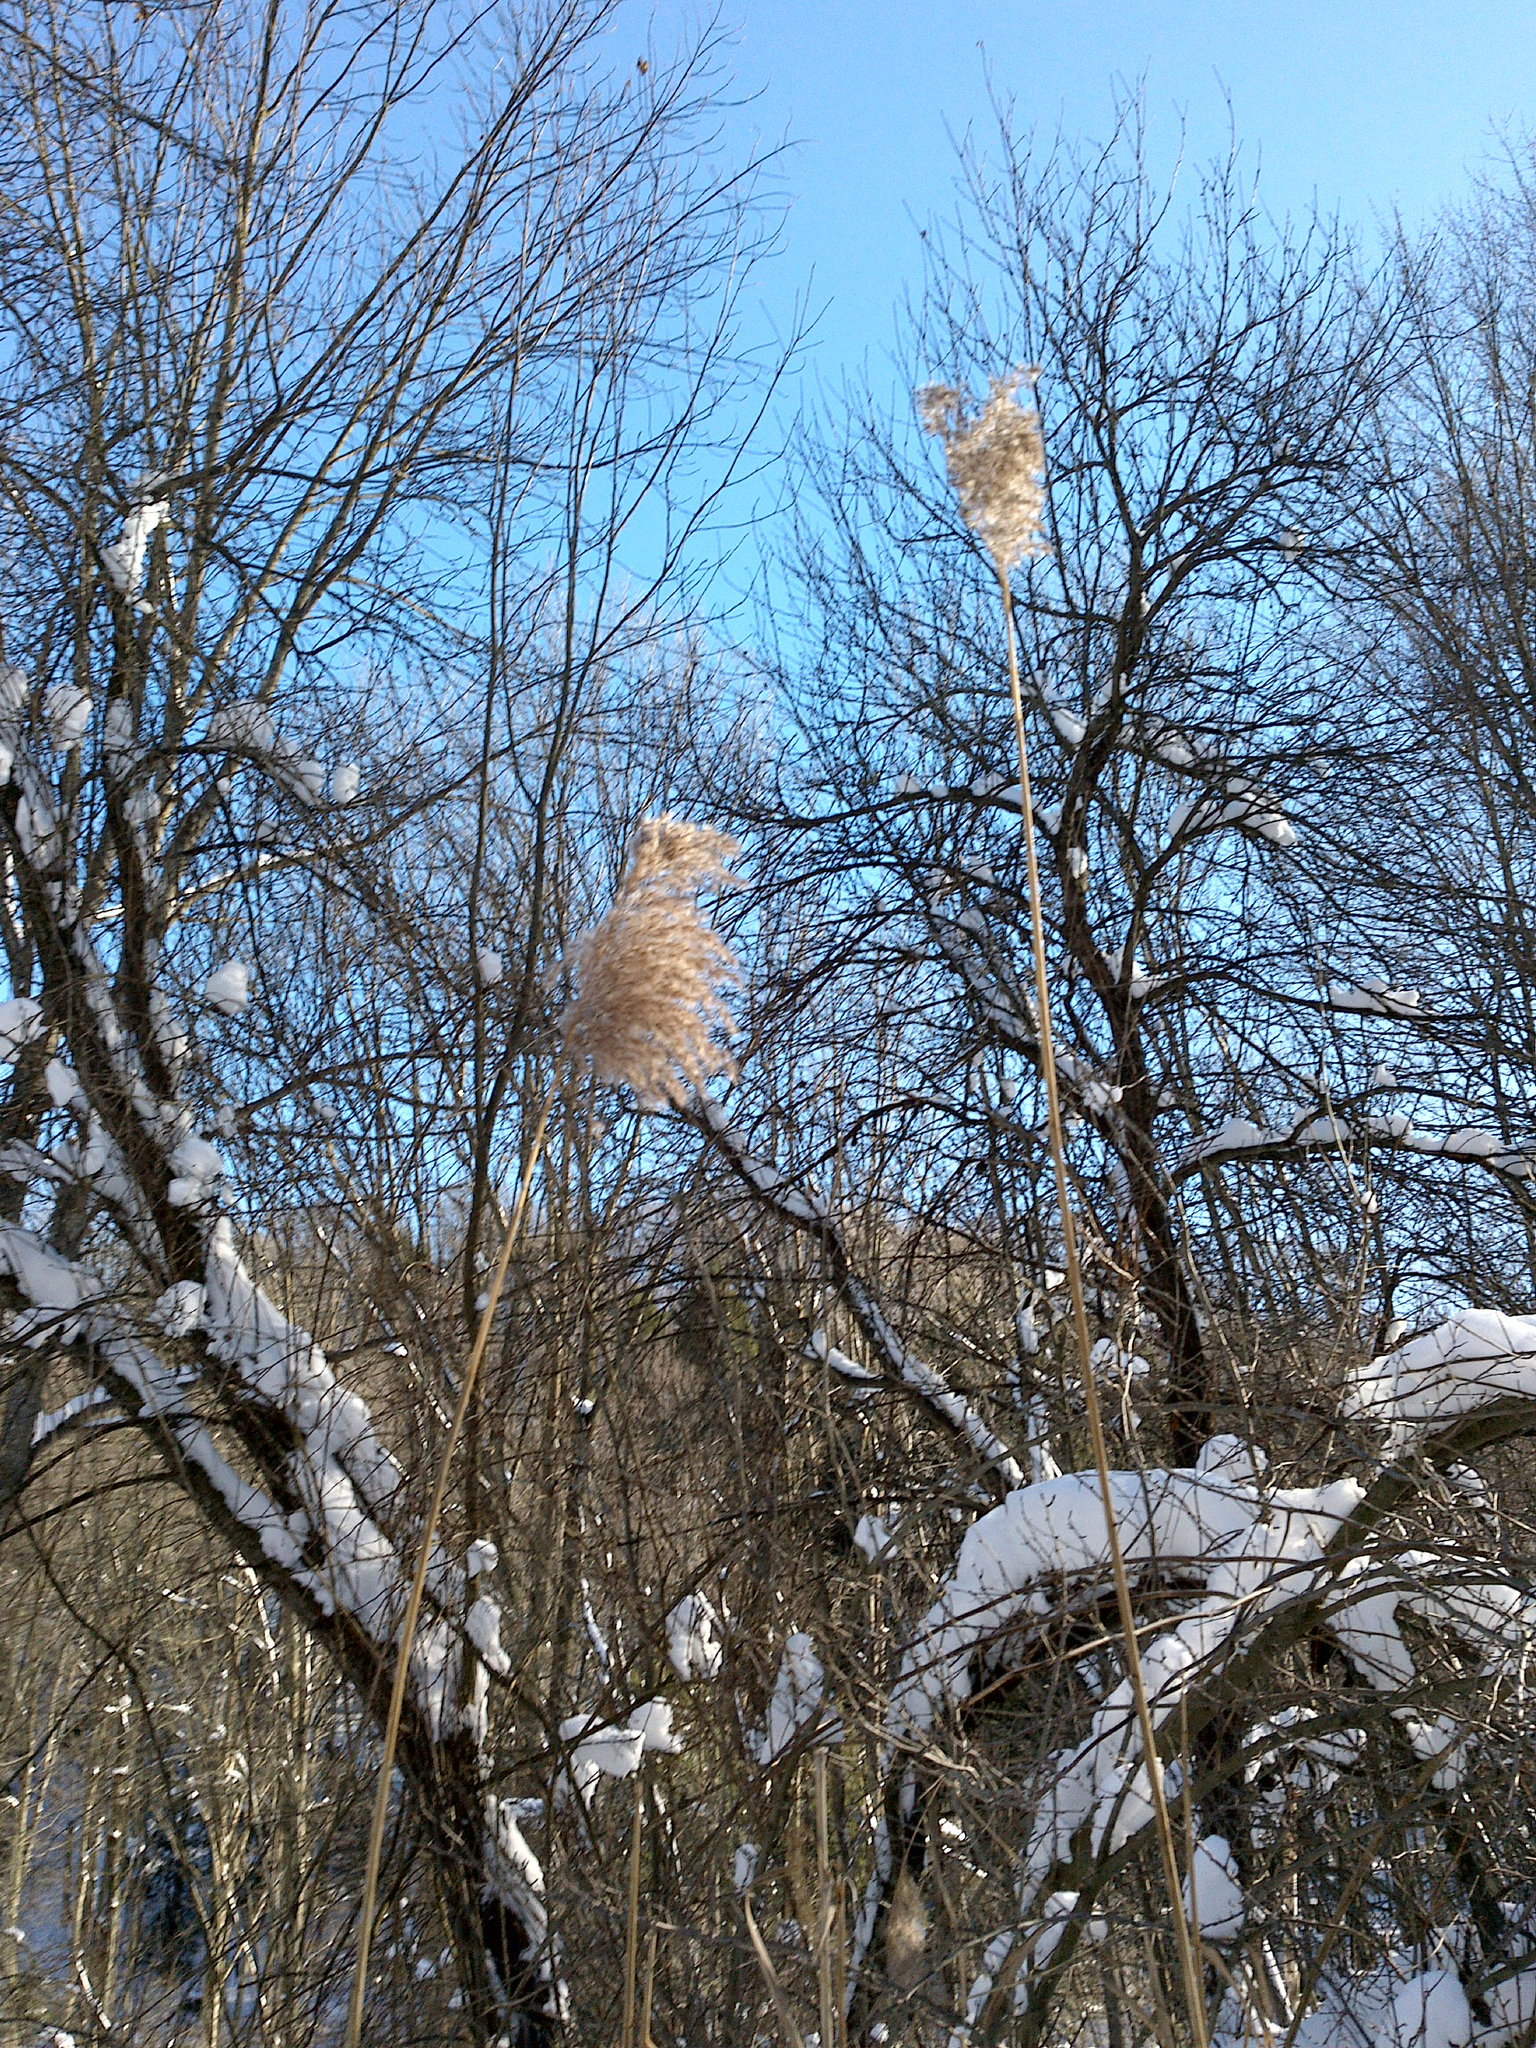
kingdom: Plantae
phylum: Tracheophyta
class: Liliopsida
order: Poales
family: Poaceae
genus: Phragmites
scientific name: Phragmites australis
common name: Common reed
